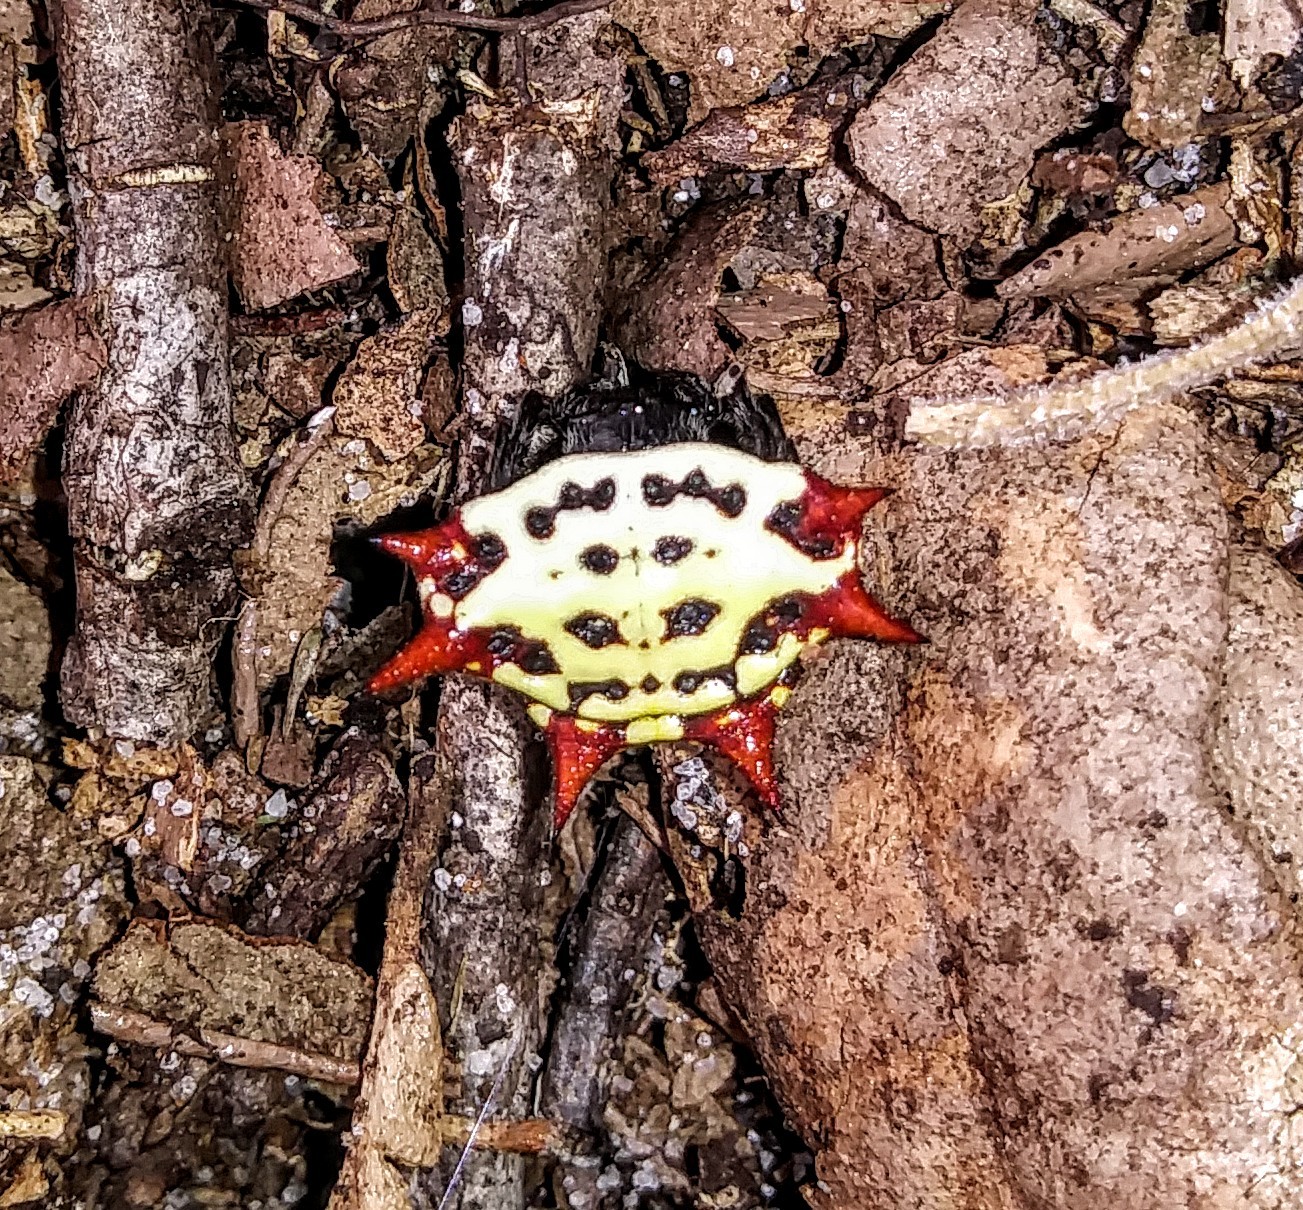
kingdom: Animalia
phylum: Arthropoda
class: Arachnida
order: Araneae
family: Araneidae
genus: Gasteracantha
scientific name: Gasteracantha cancriformis
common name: Orb weavers
